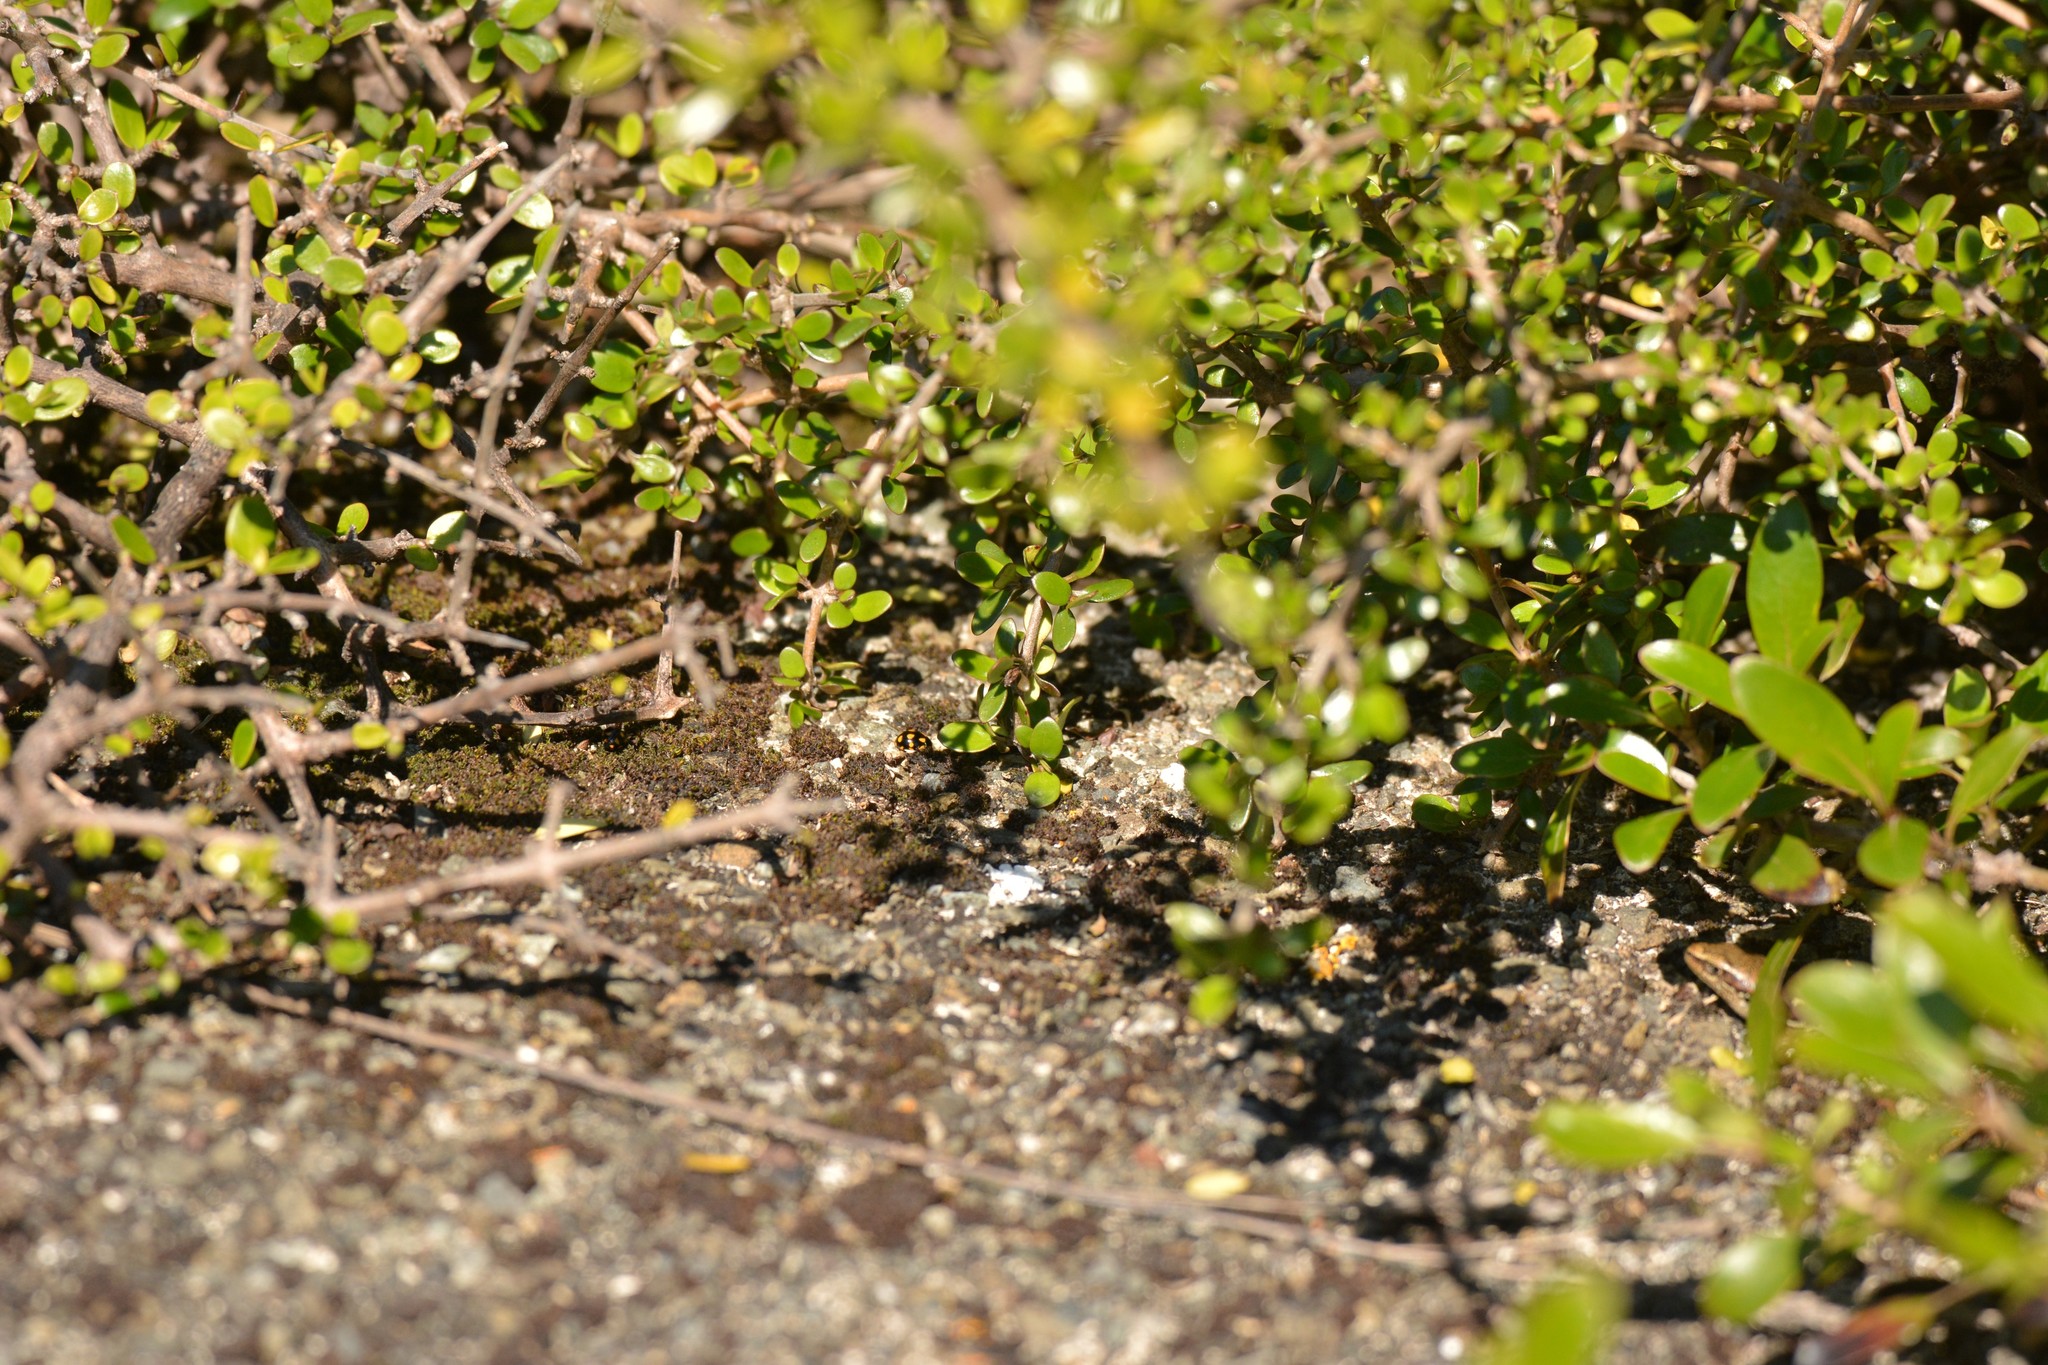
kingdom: Animalia
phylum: Arthropoda
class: Insecta
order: Coleoptera
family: Coccinellidae
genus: Coccinella
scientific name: Coccinella leonina
